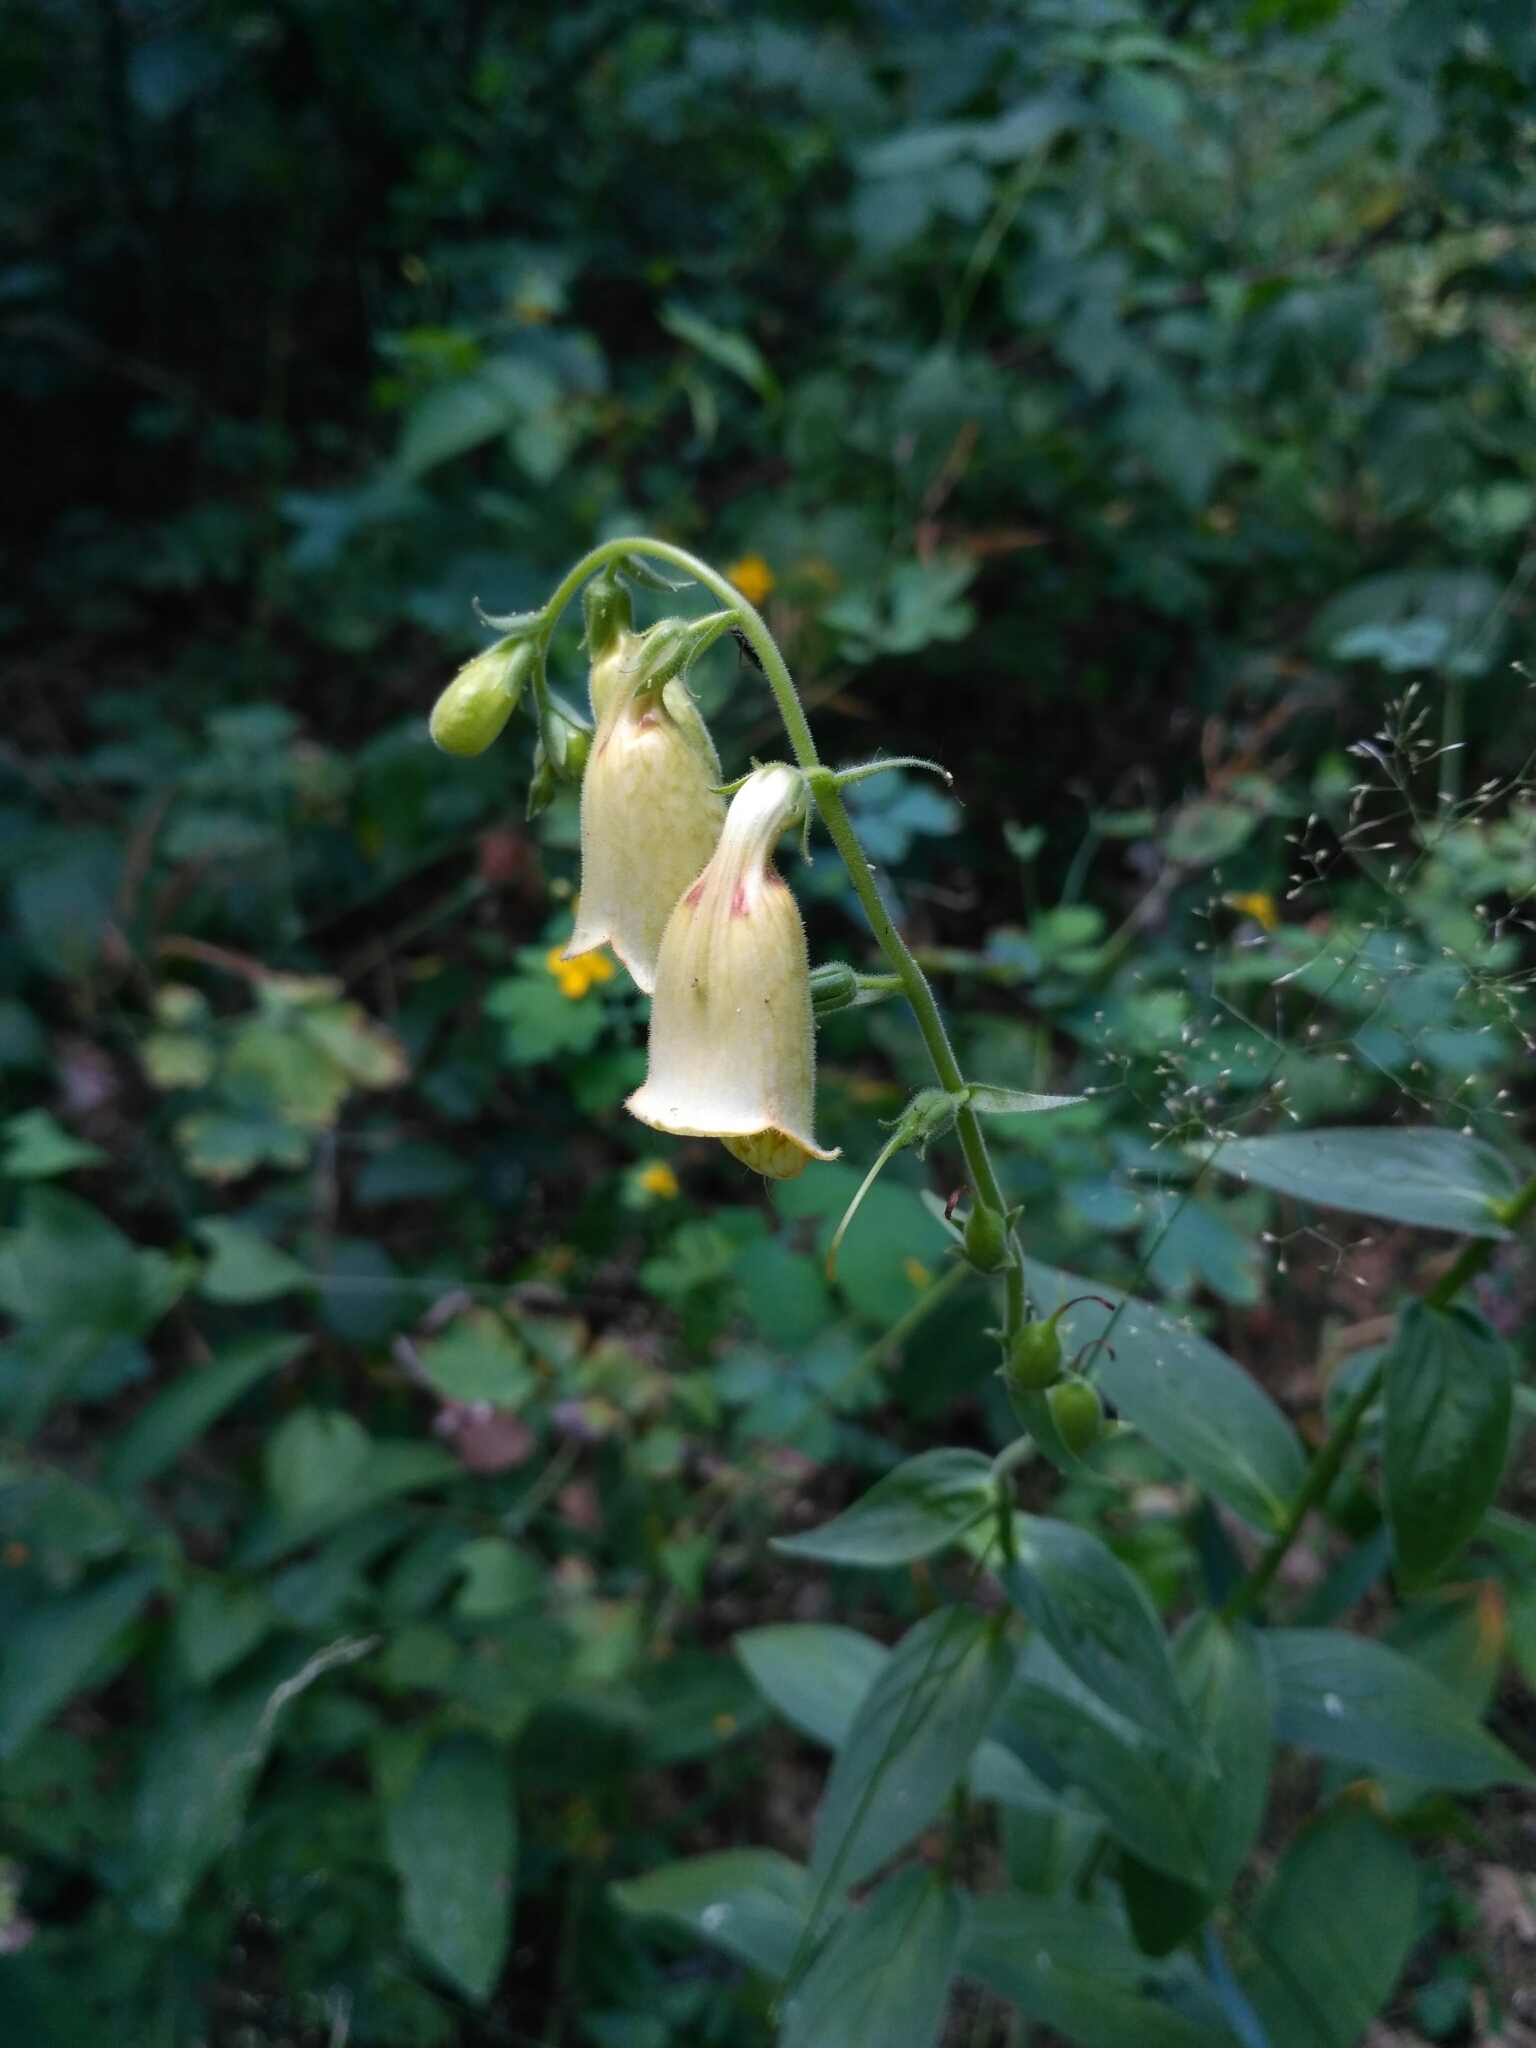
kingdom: Plantae
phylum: Tracheophyta
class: Magnoliopsida
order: Lamiales
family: Plantaginaceae
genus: Digitalis
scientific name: Digitalis grandiflora
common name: Yellow foxglove
